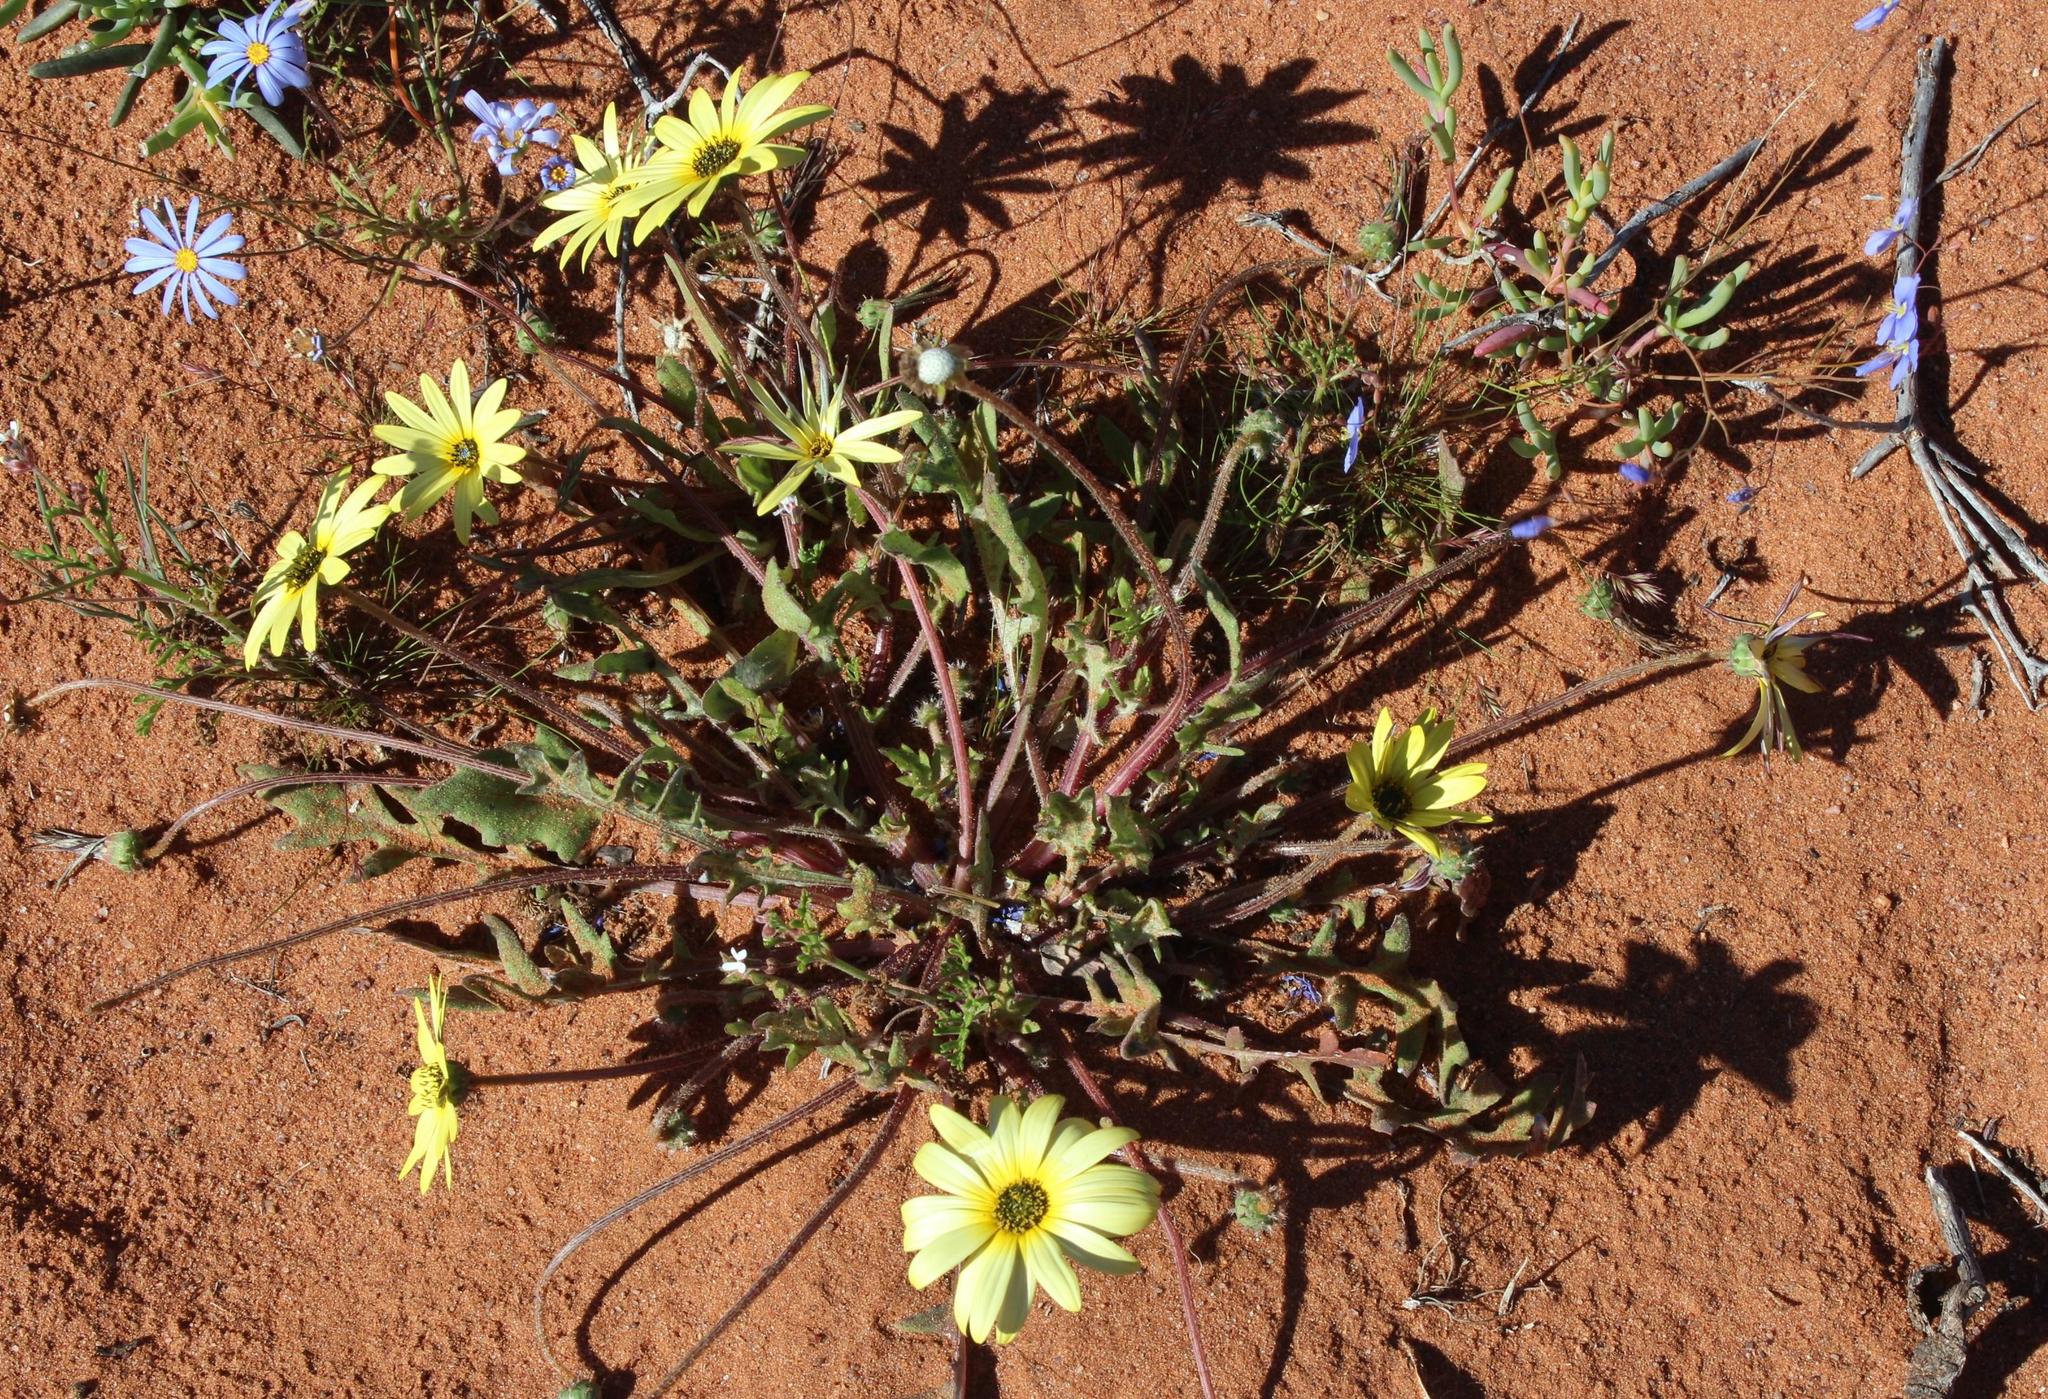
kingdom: Plantae
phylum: Tracheophyta
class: Magnoliopsida
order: Asterales
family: Asteraceae
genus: Arctotheca
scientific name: Arctotheca calendula
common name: Capeweed
